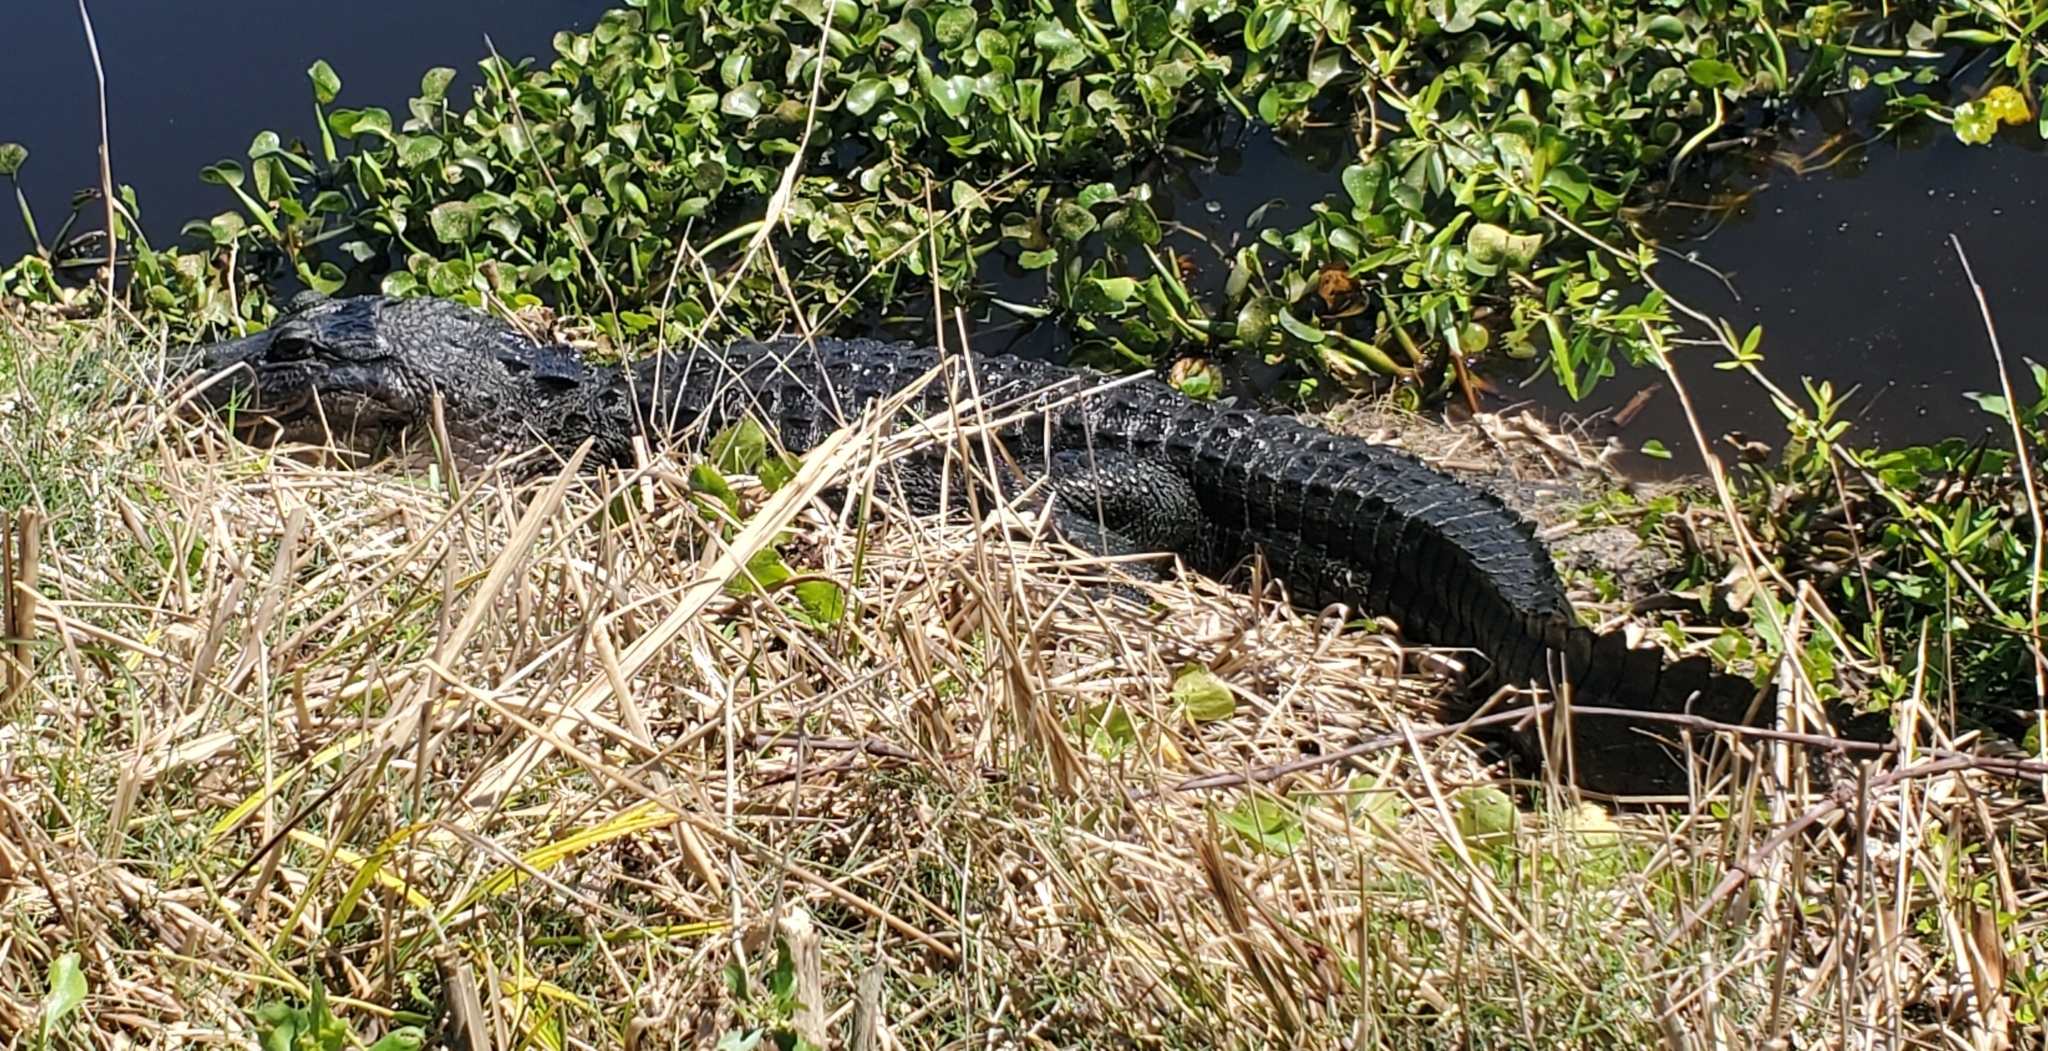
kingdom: Animalia
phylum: Chordata
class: Crocodylia
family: Alligatoridae
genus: Alligator
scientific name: Alligator mississippiensis
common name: American alligator
